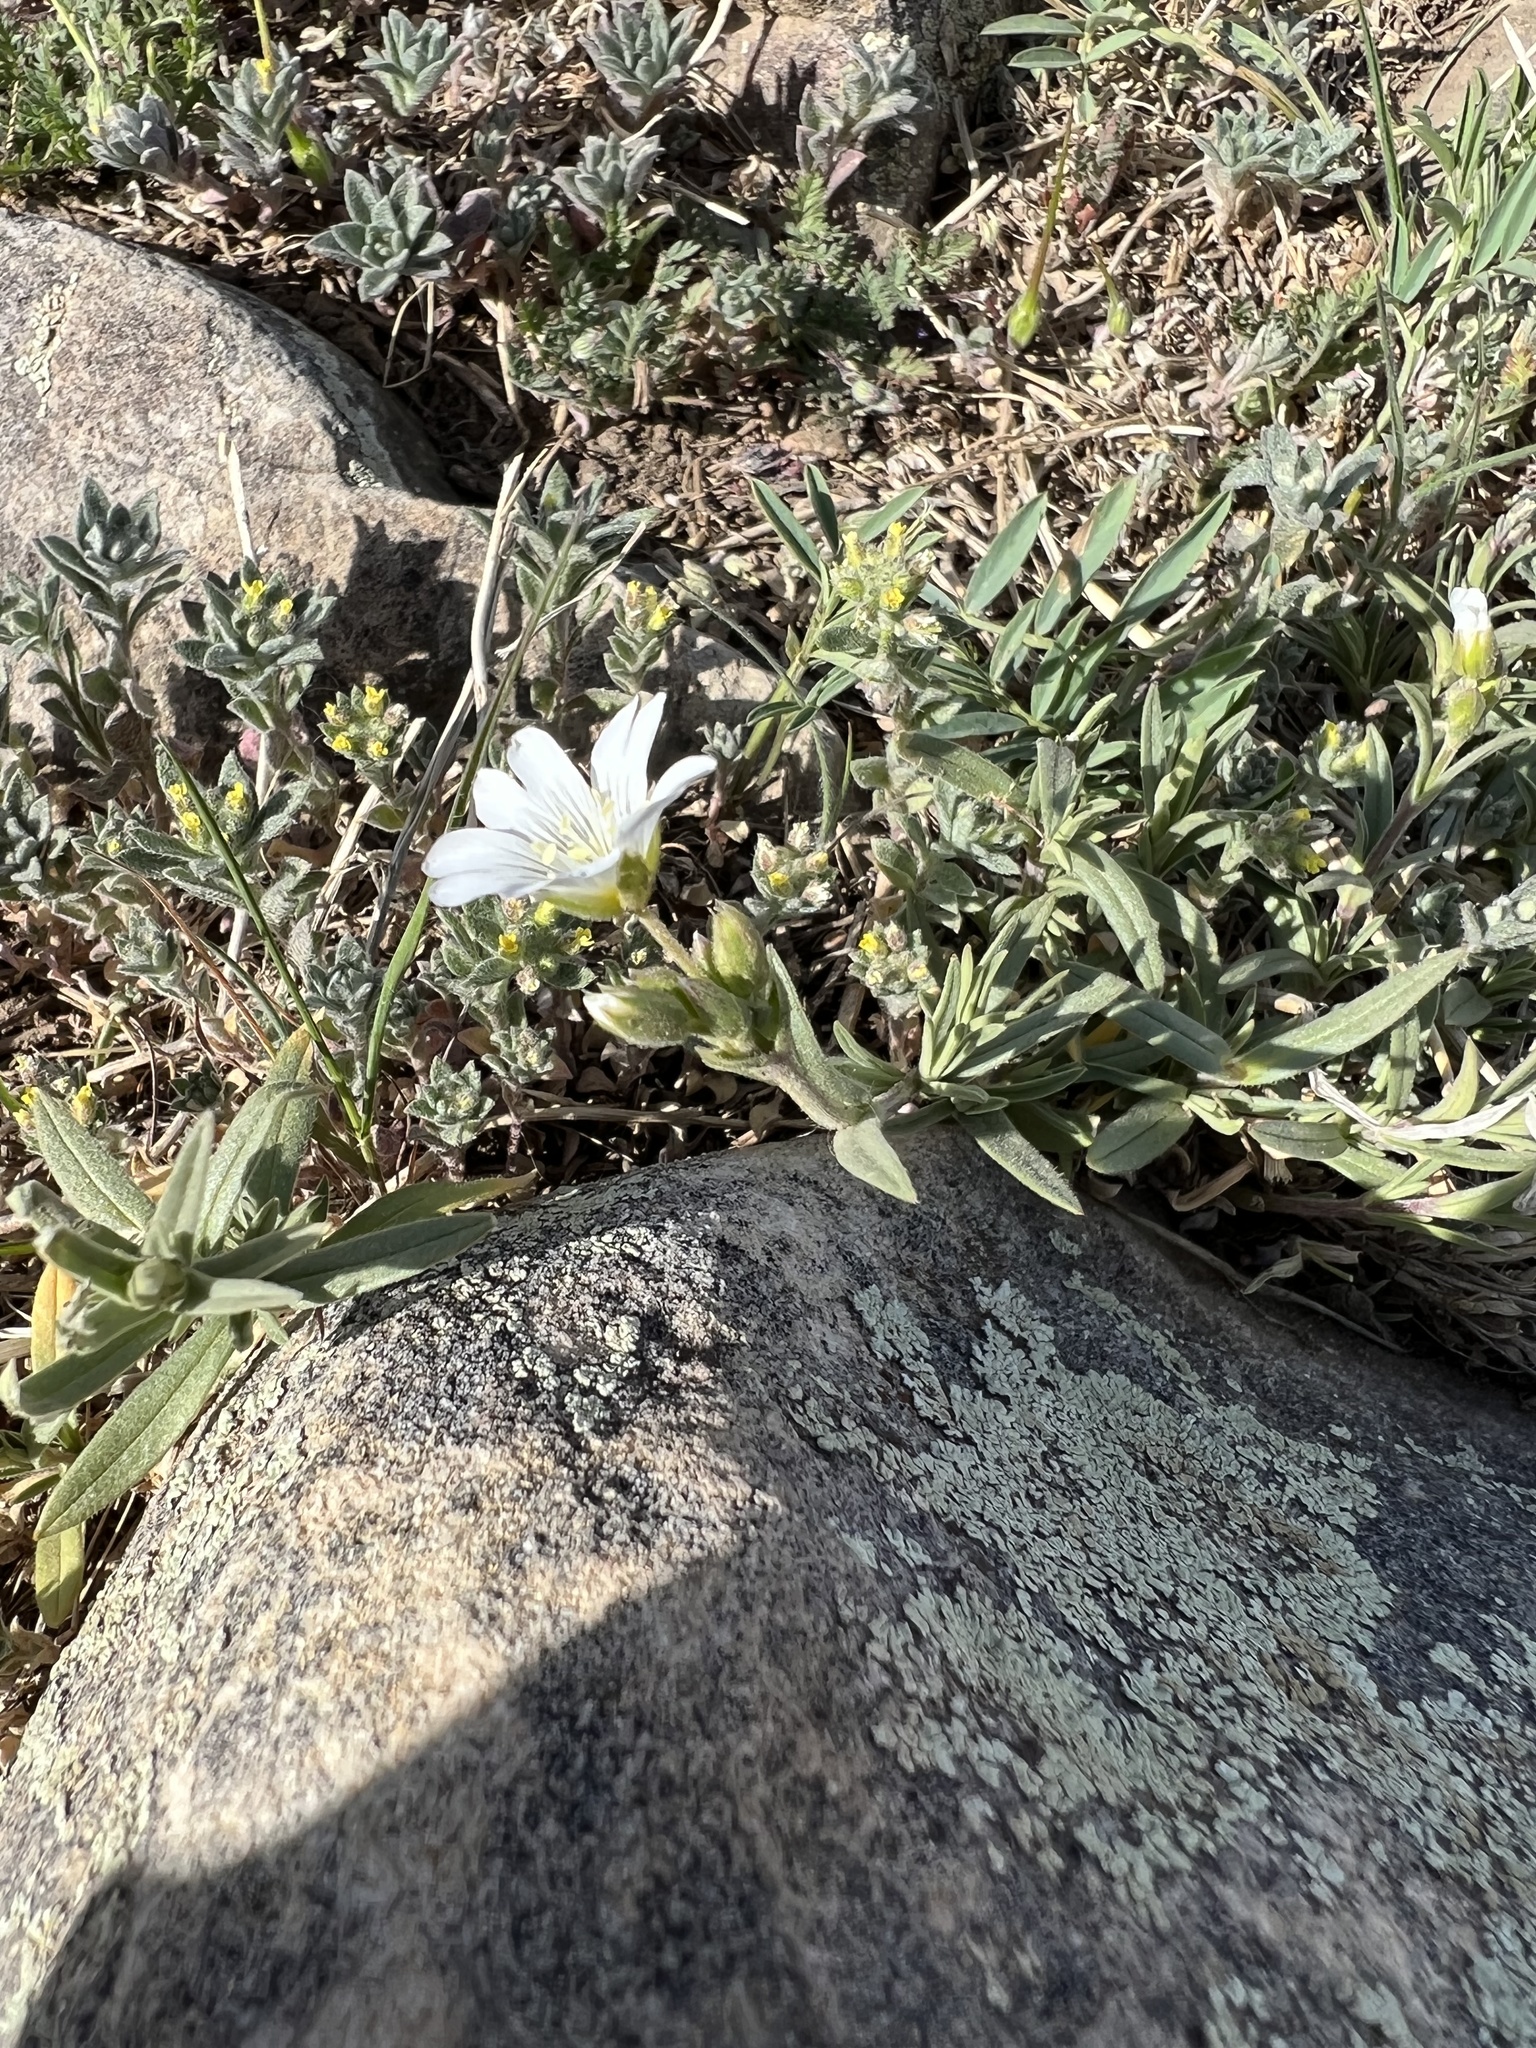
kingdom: Plantae
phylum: Tracheophyta
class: Magnoliopsida
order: Caryophyllales
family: Caryophyllaceae
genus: Cerastium
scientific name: Cerastium arvense
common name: Field mouse-ear
